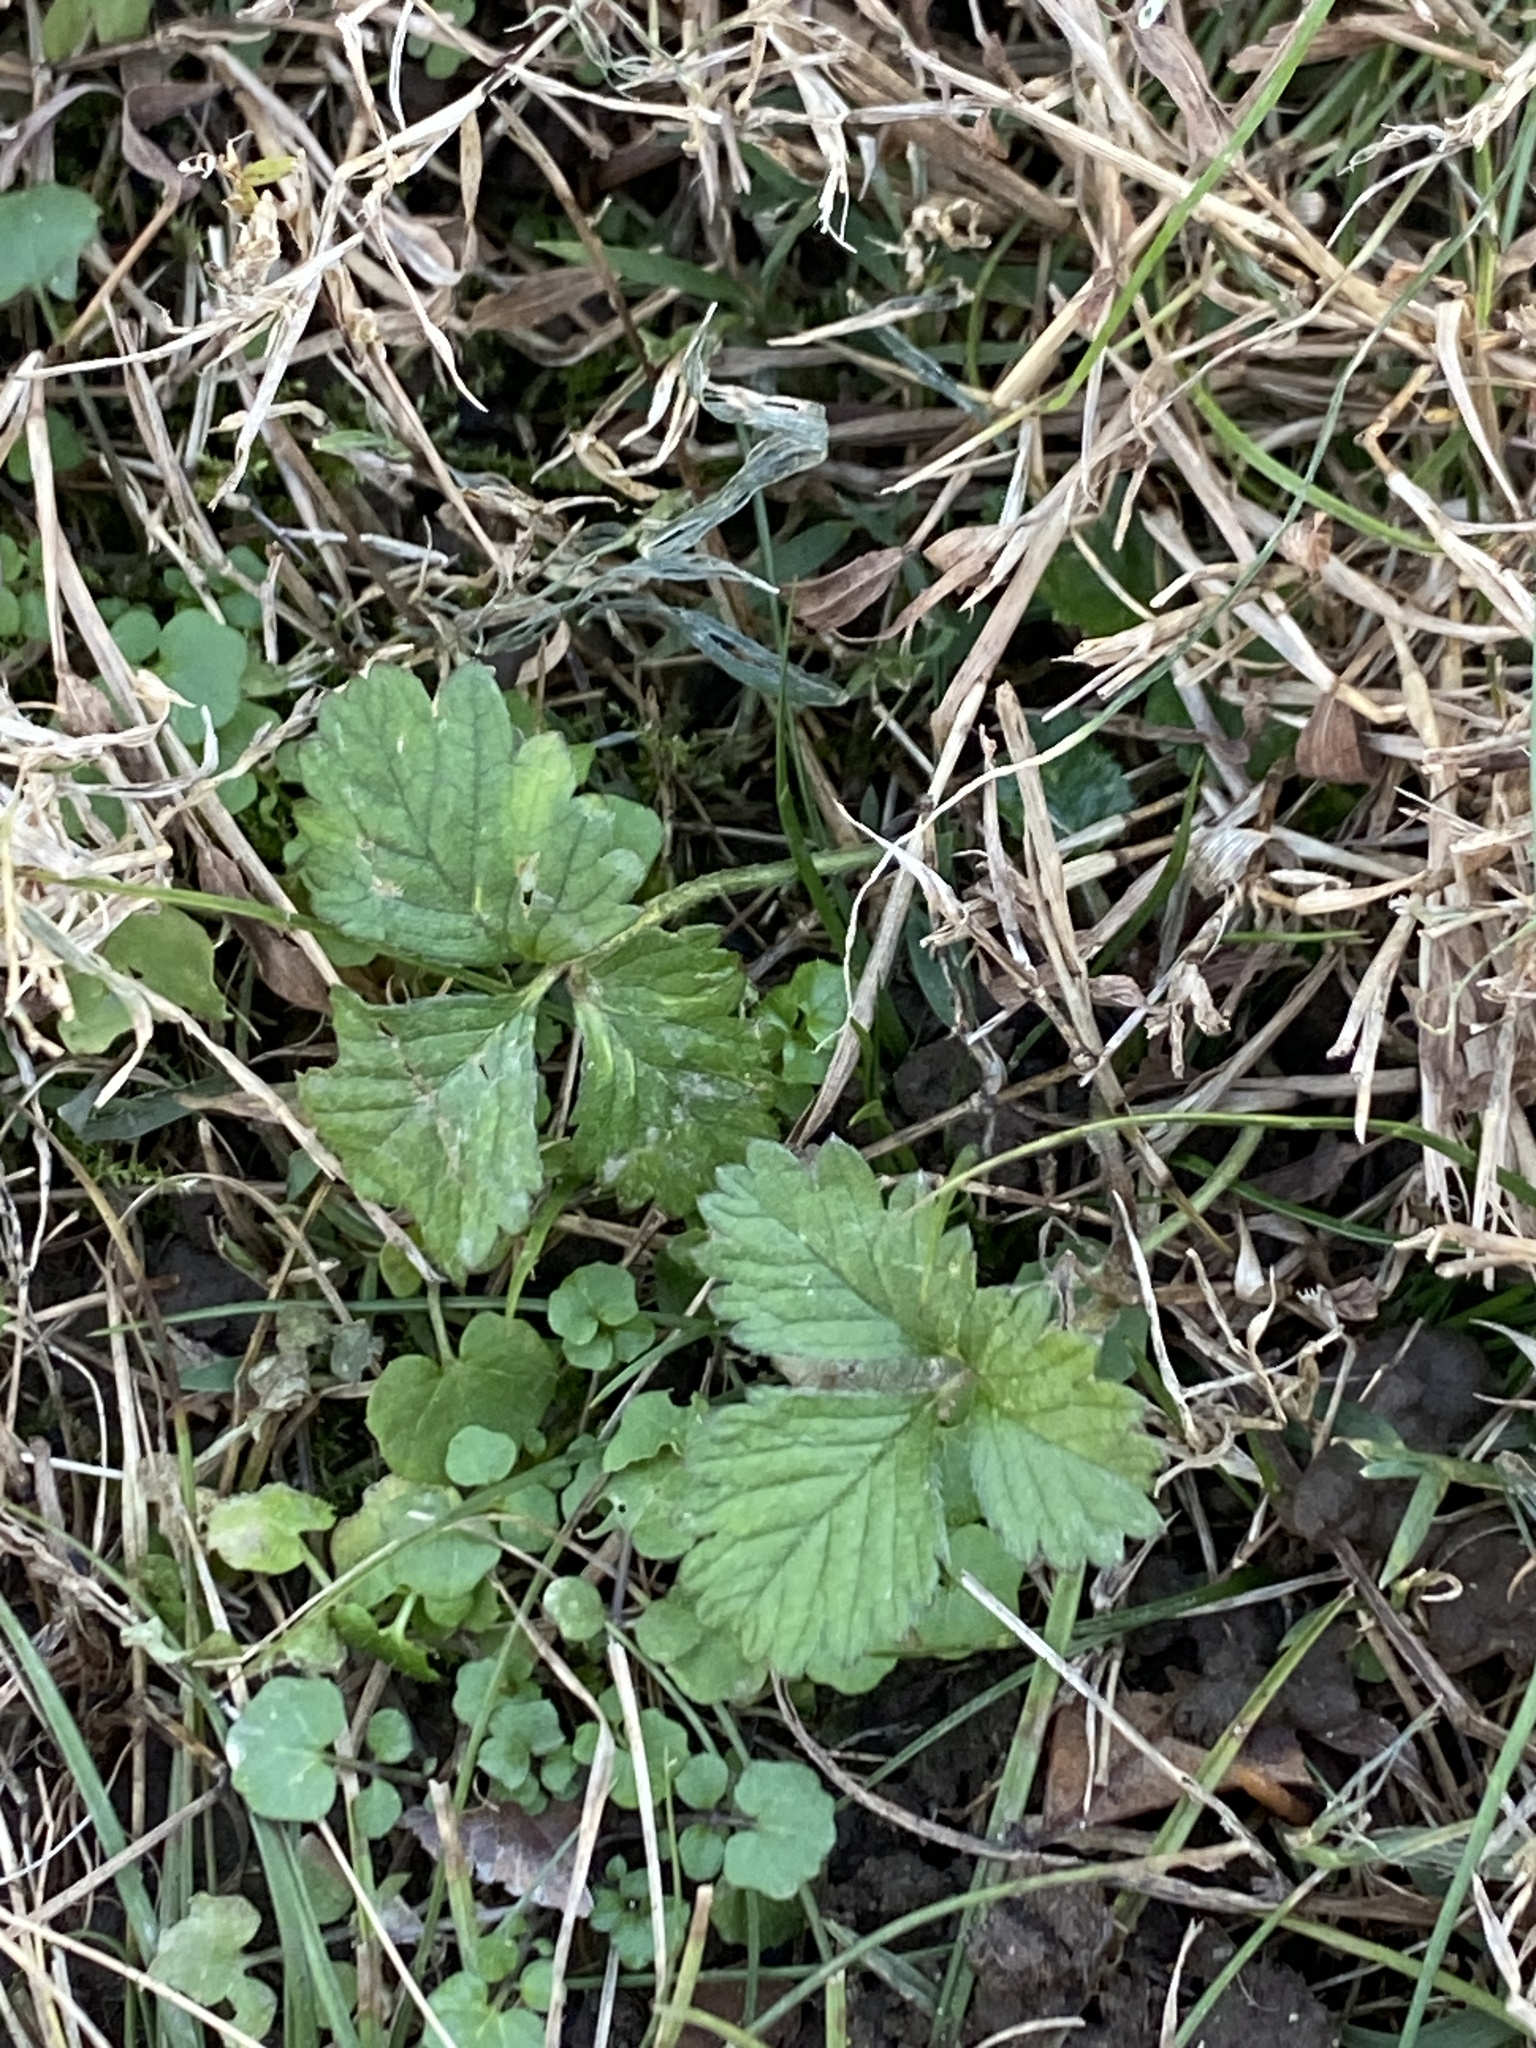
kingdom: Plantae
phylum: Tracheophyta
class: Magnoliopsida
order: Rosales
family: Rosaceae
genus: Potentilla
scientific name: Potentilla indica
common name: Yellow-flowered strawberry
